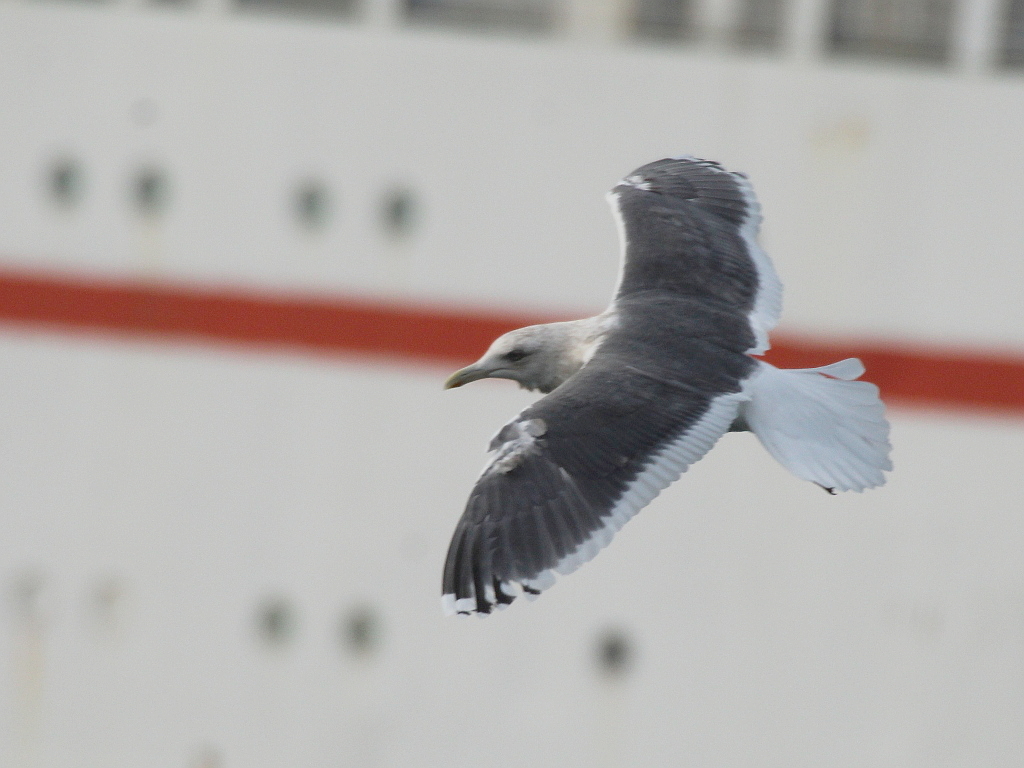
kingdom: Animalia
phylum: Chordata
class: Aves
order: Charadriiformes
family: Laridae
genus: Larus
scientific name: Larus schistisagus
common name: Slaty-backed gull
